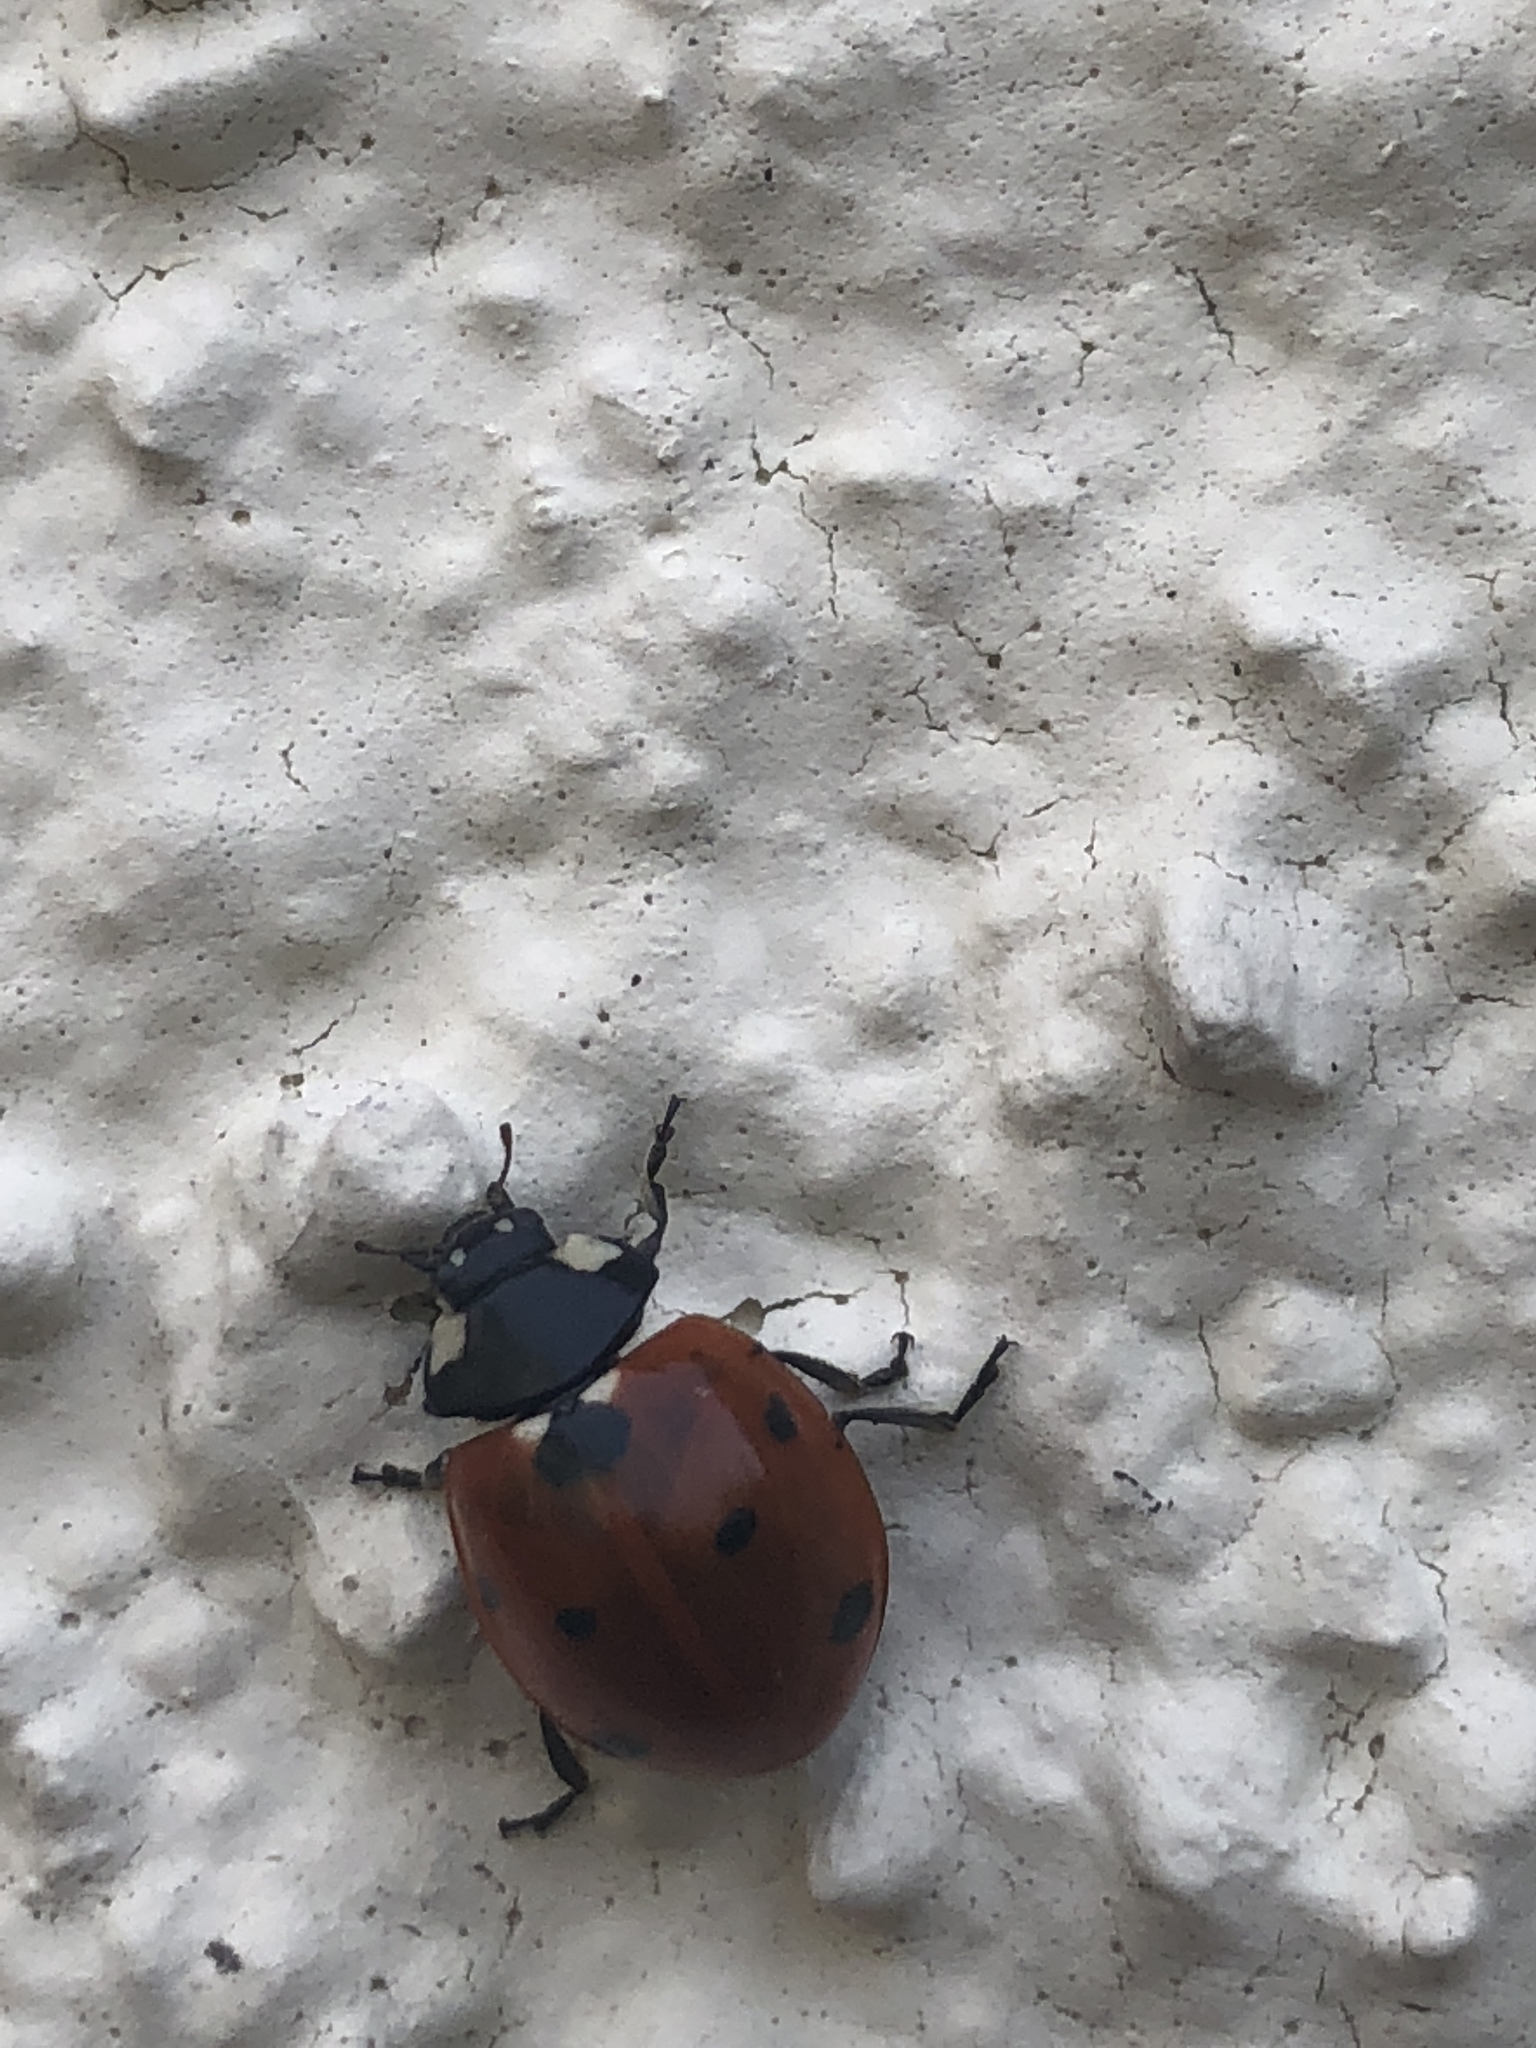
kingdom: Animalia
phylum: Arthropoda
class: Insecta
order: Coleoptera
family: Coccinellidae
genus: Coccinella
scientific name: Coccinella septempunctata
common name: Sevenspotted lady beetle
